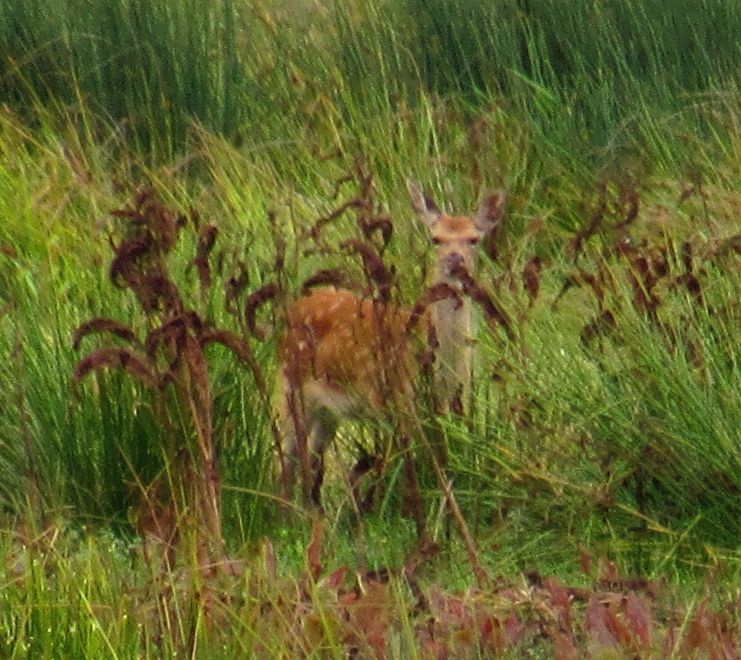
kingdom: Animalia
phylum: Chordata
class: Mammalia
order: Artiodactyla
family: Cervidae
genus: Dama
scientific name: Dama dama
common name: Fallow deer
